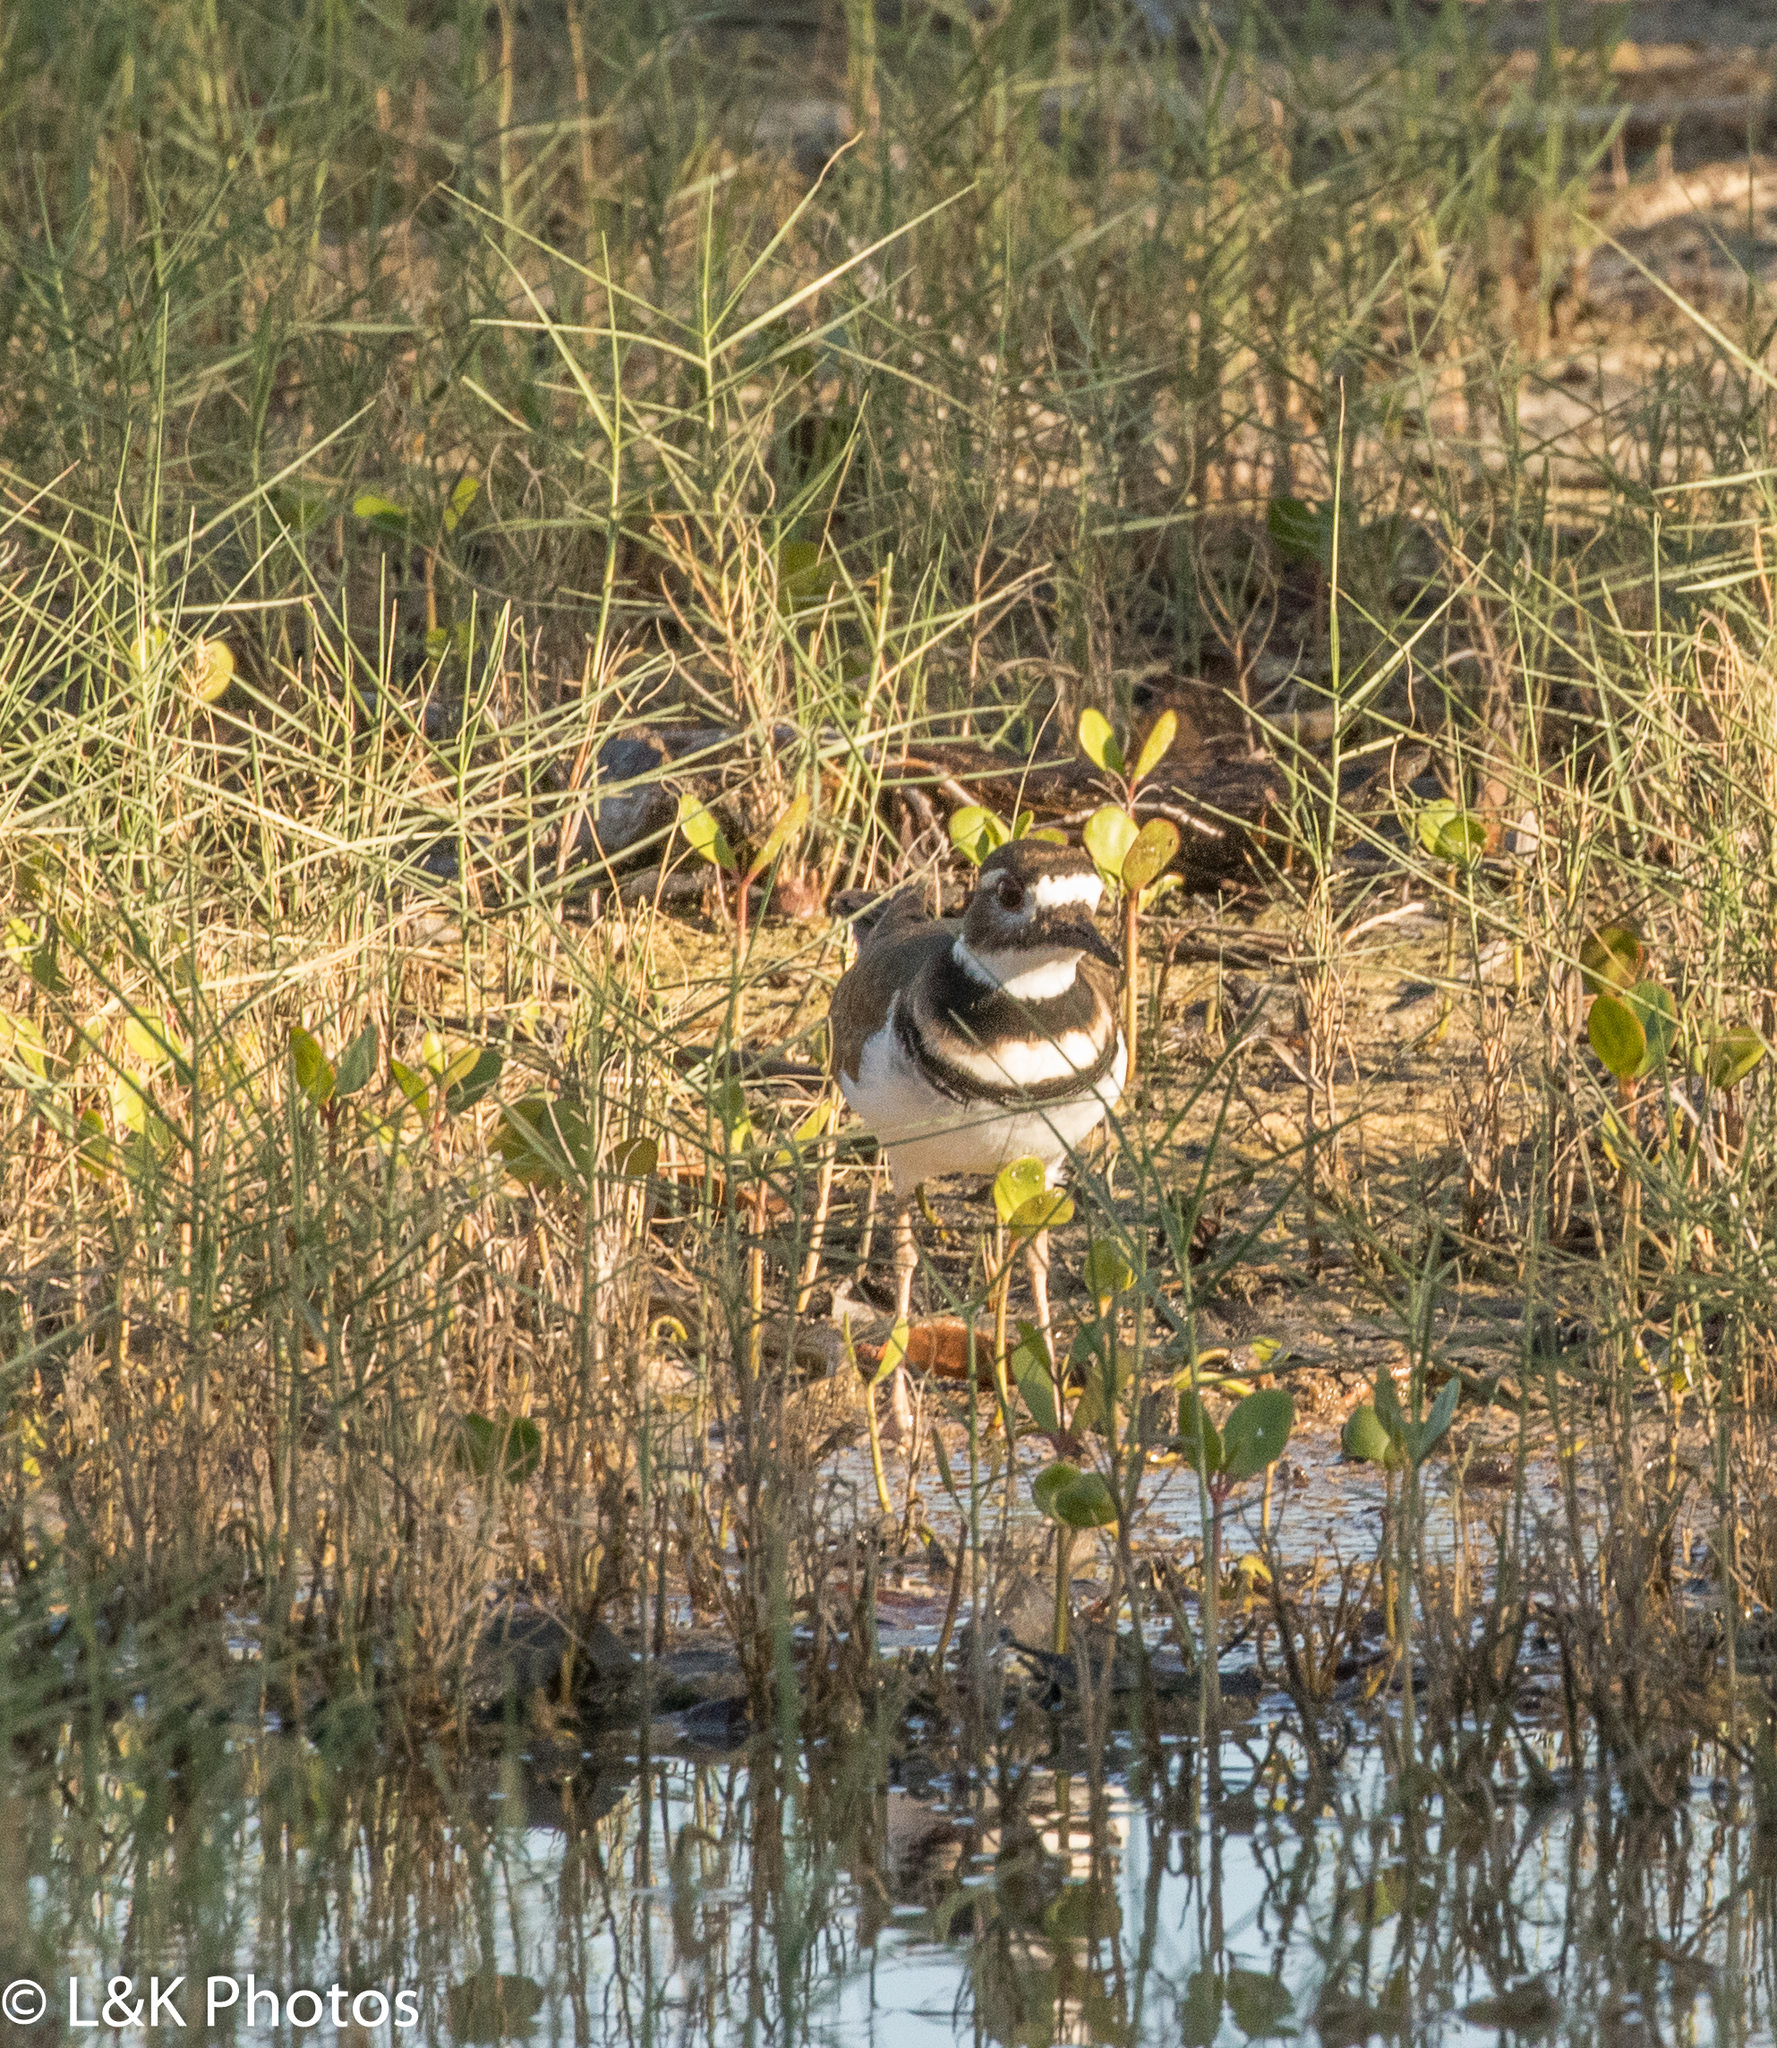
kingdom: Animalia
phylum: Chordata
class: Aves
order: Charadriiformes
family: Charadriidae
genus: Charadrius
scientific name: Charadrius vociferus
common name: Killdeer
